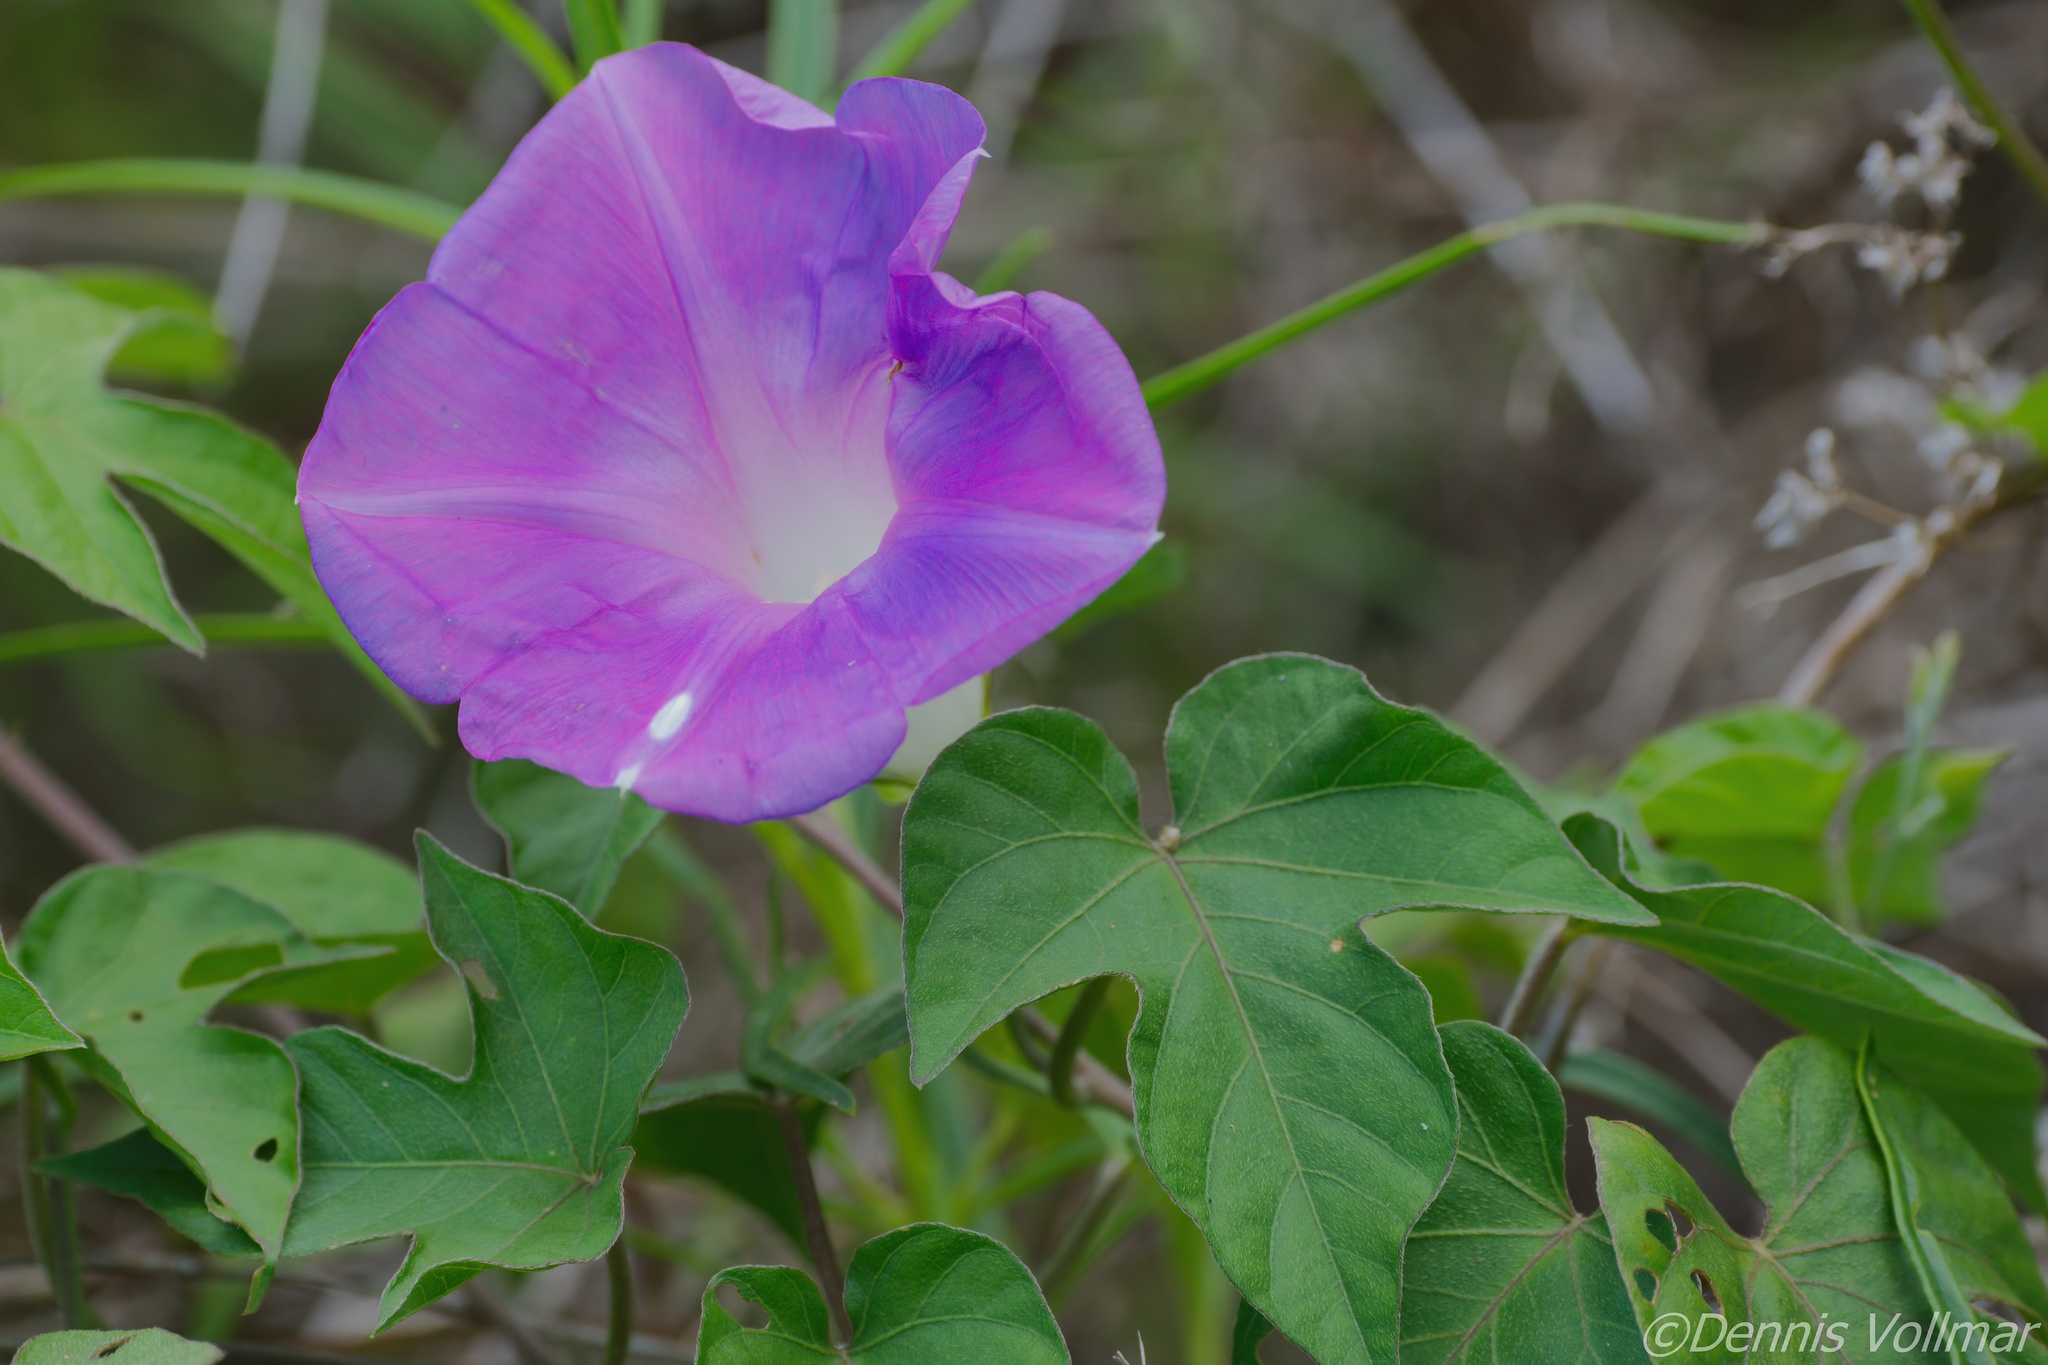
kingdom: Plantae
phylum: Tracheophyta
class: Magnoliopsida
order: Solanales
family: Convolvulaceae
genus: Ipomoea
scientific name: Ipomoea indica
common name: Blue dawnflower
